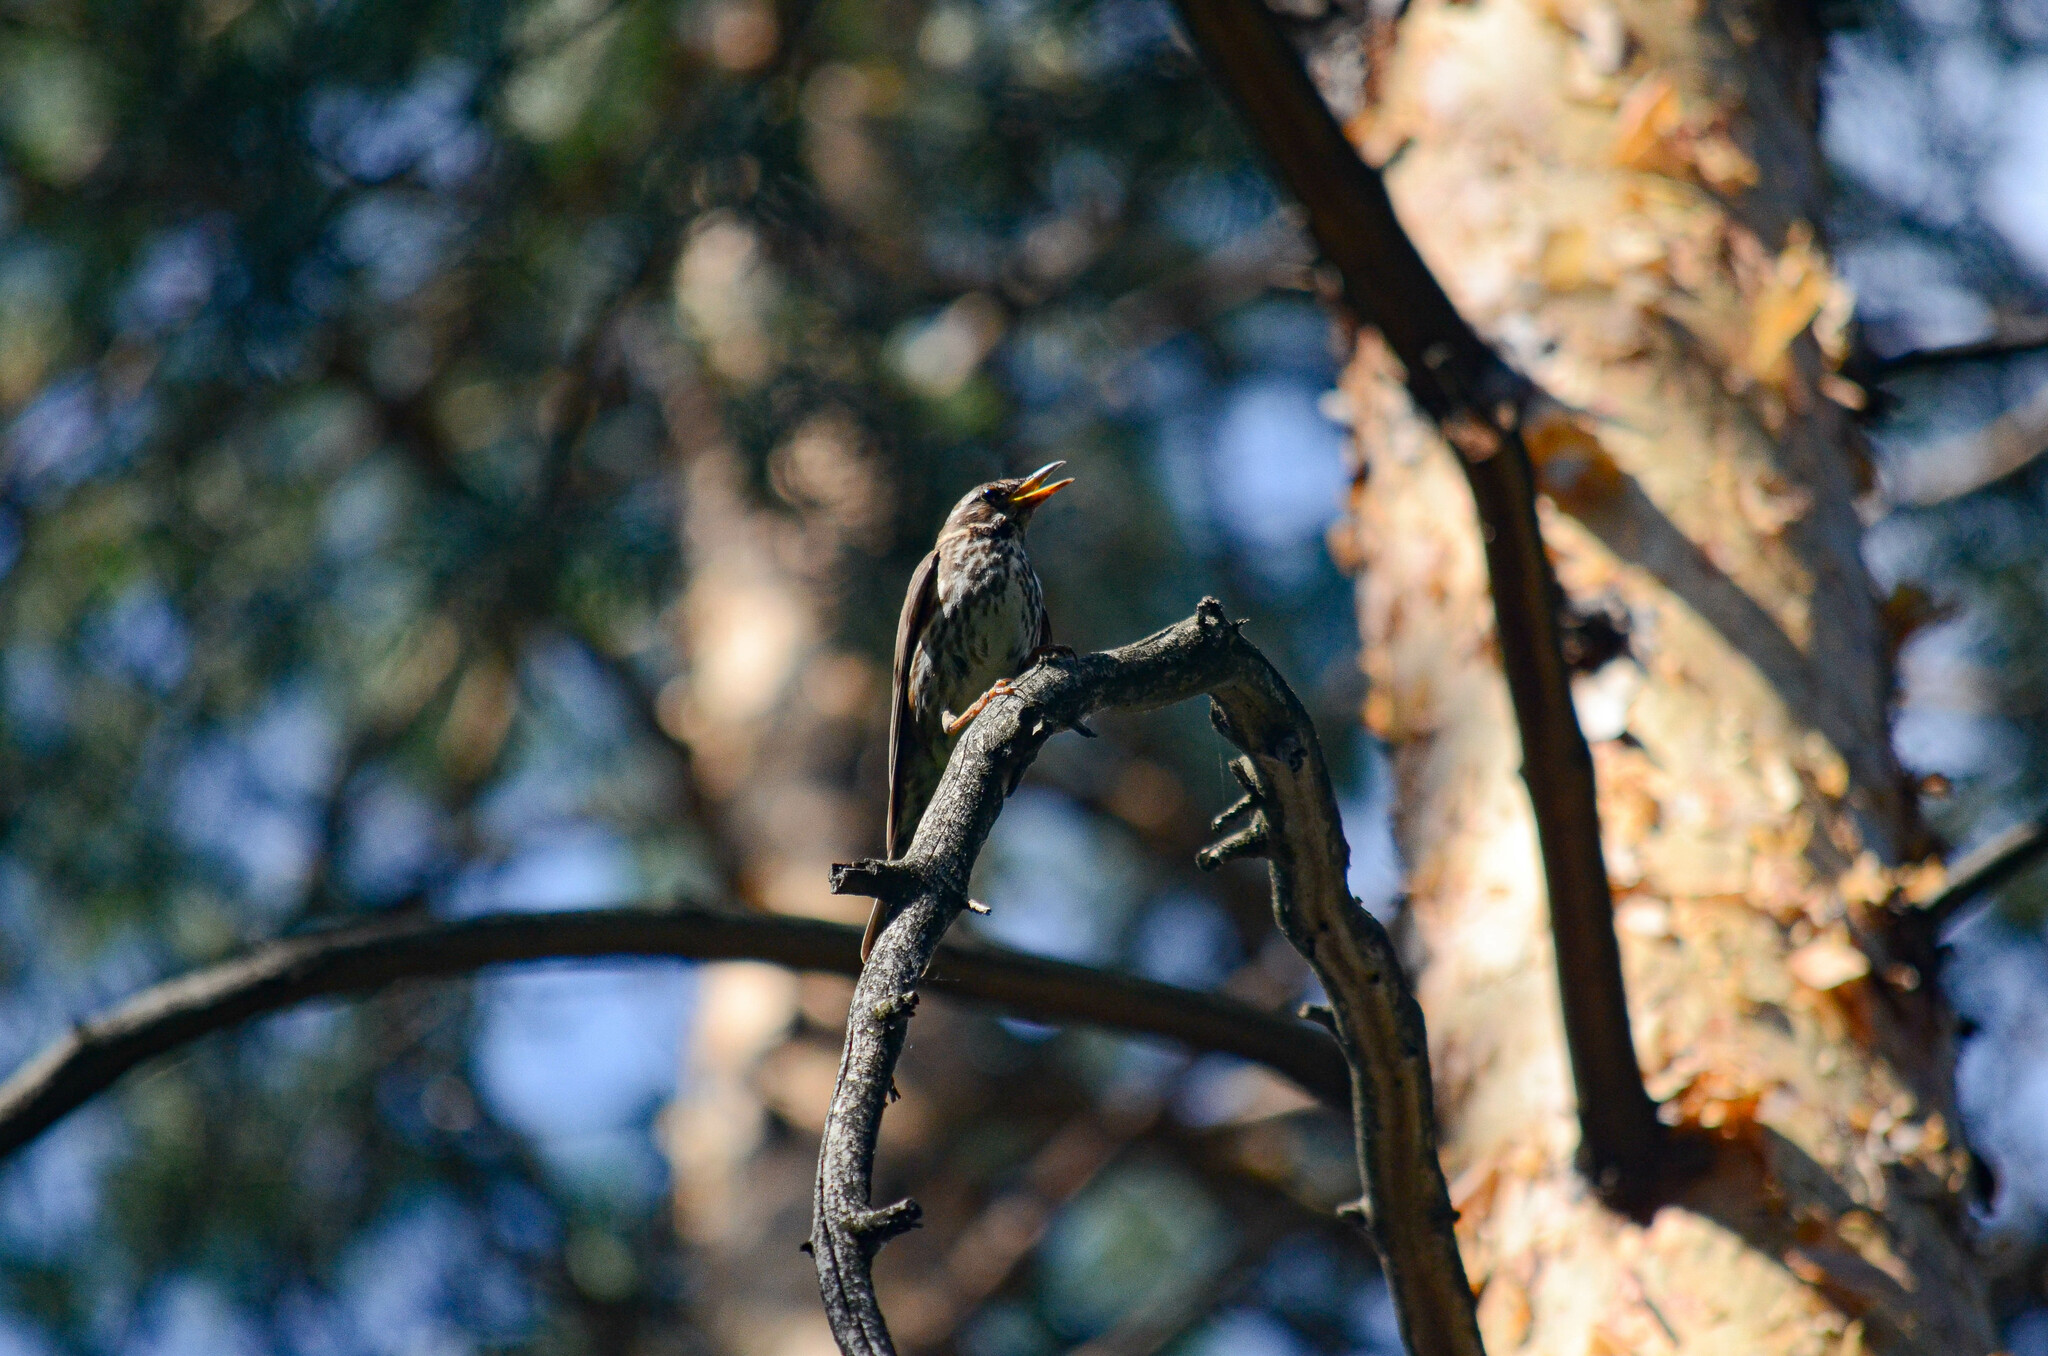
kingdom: Animalia
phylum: Chordata
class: Aves
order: Passeriformes
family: Turdidae
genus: Turdus
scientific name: Turdus iliacus
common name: Redwing
